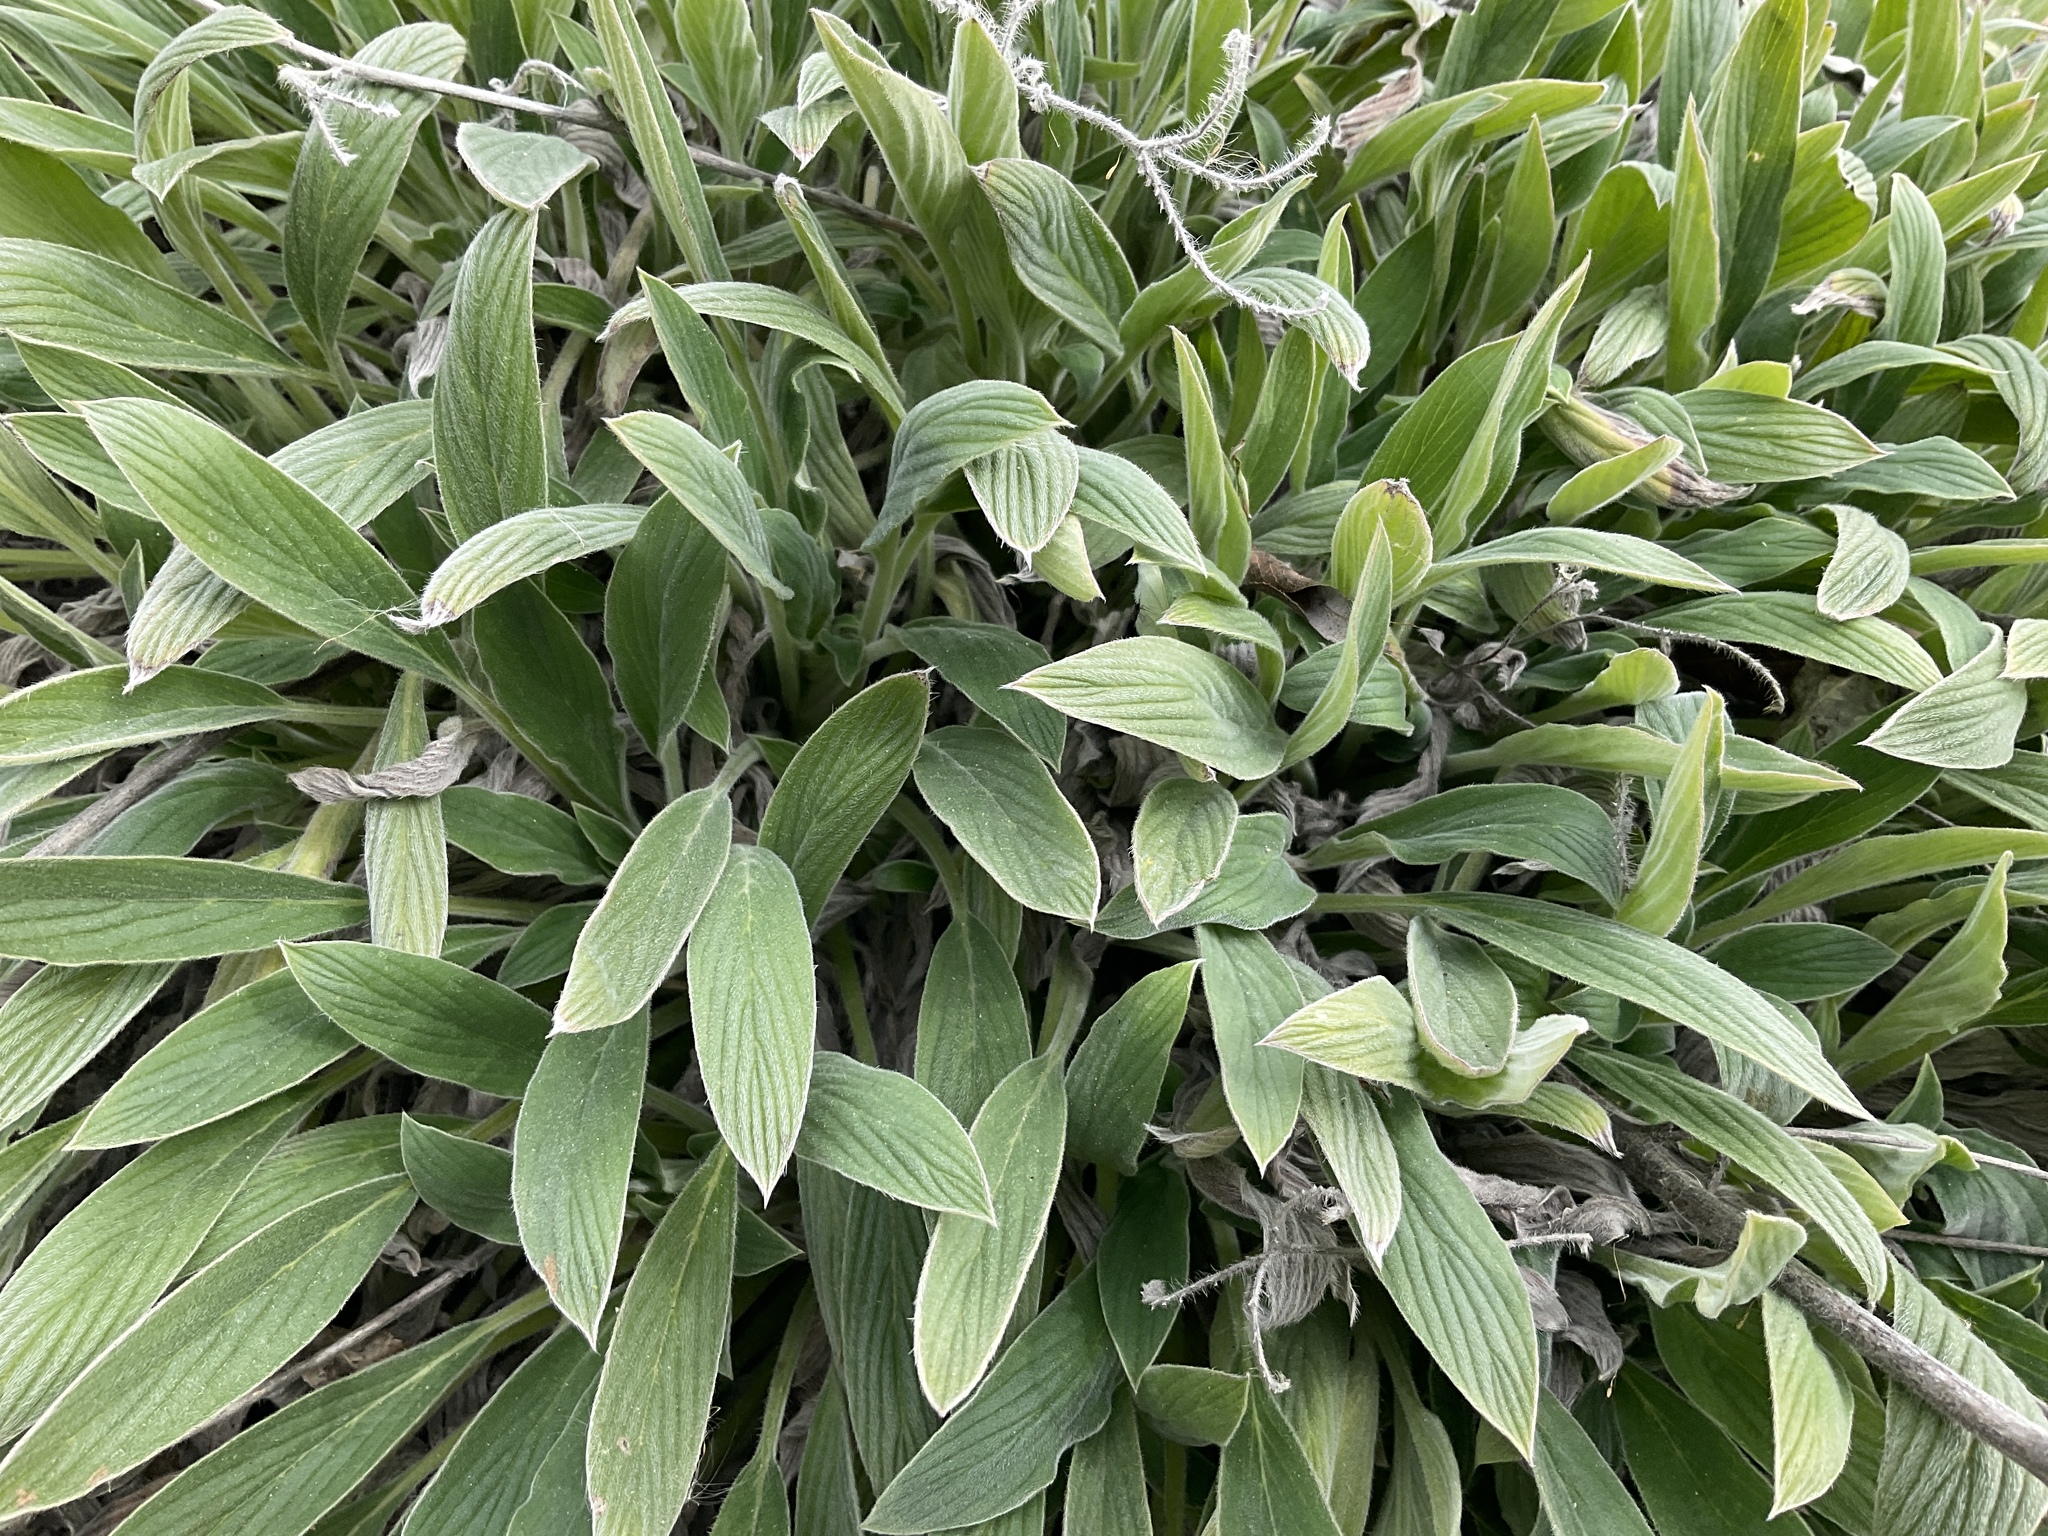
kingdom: Plantae
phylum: Tracheophyta
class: Magnoliopsida
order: Boraginales
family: Hydrophyllaceae
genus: Phacelia
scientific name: Phacelia hastata
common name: Silver-leaved phacelia
